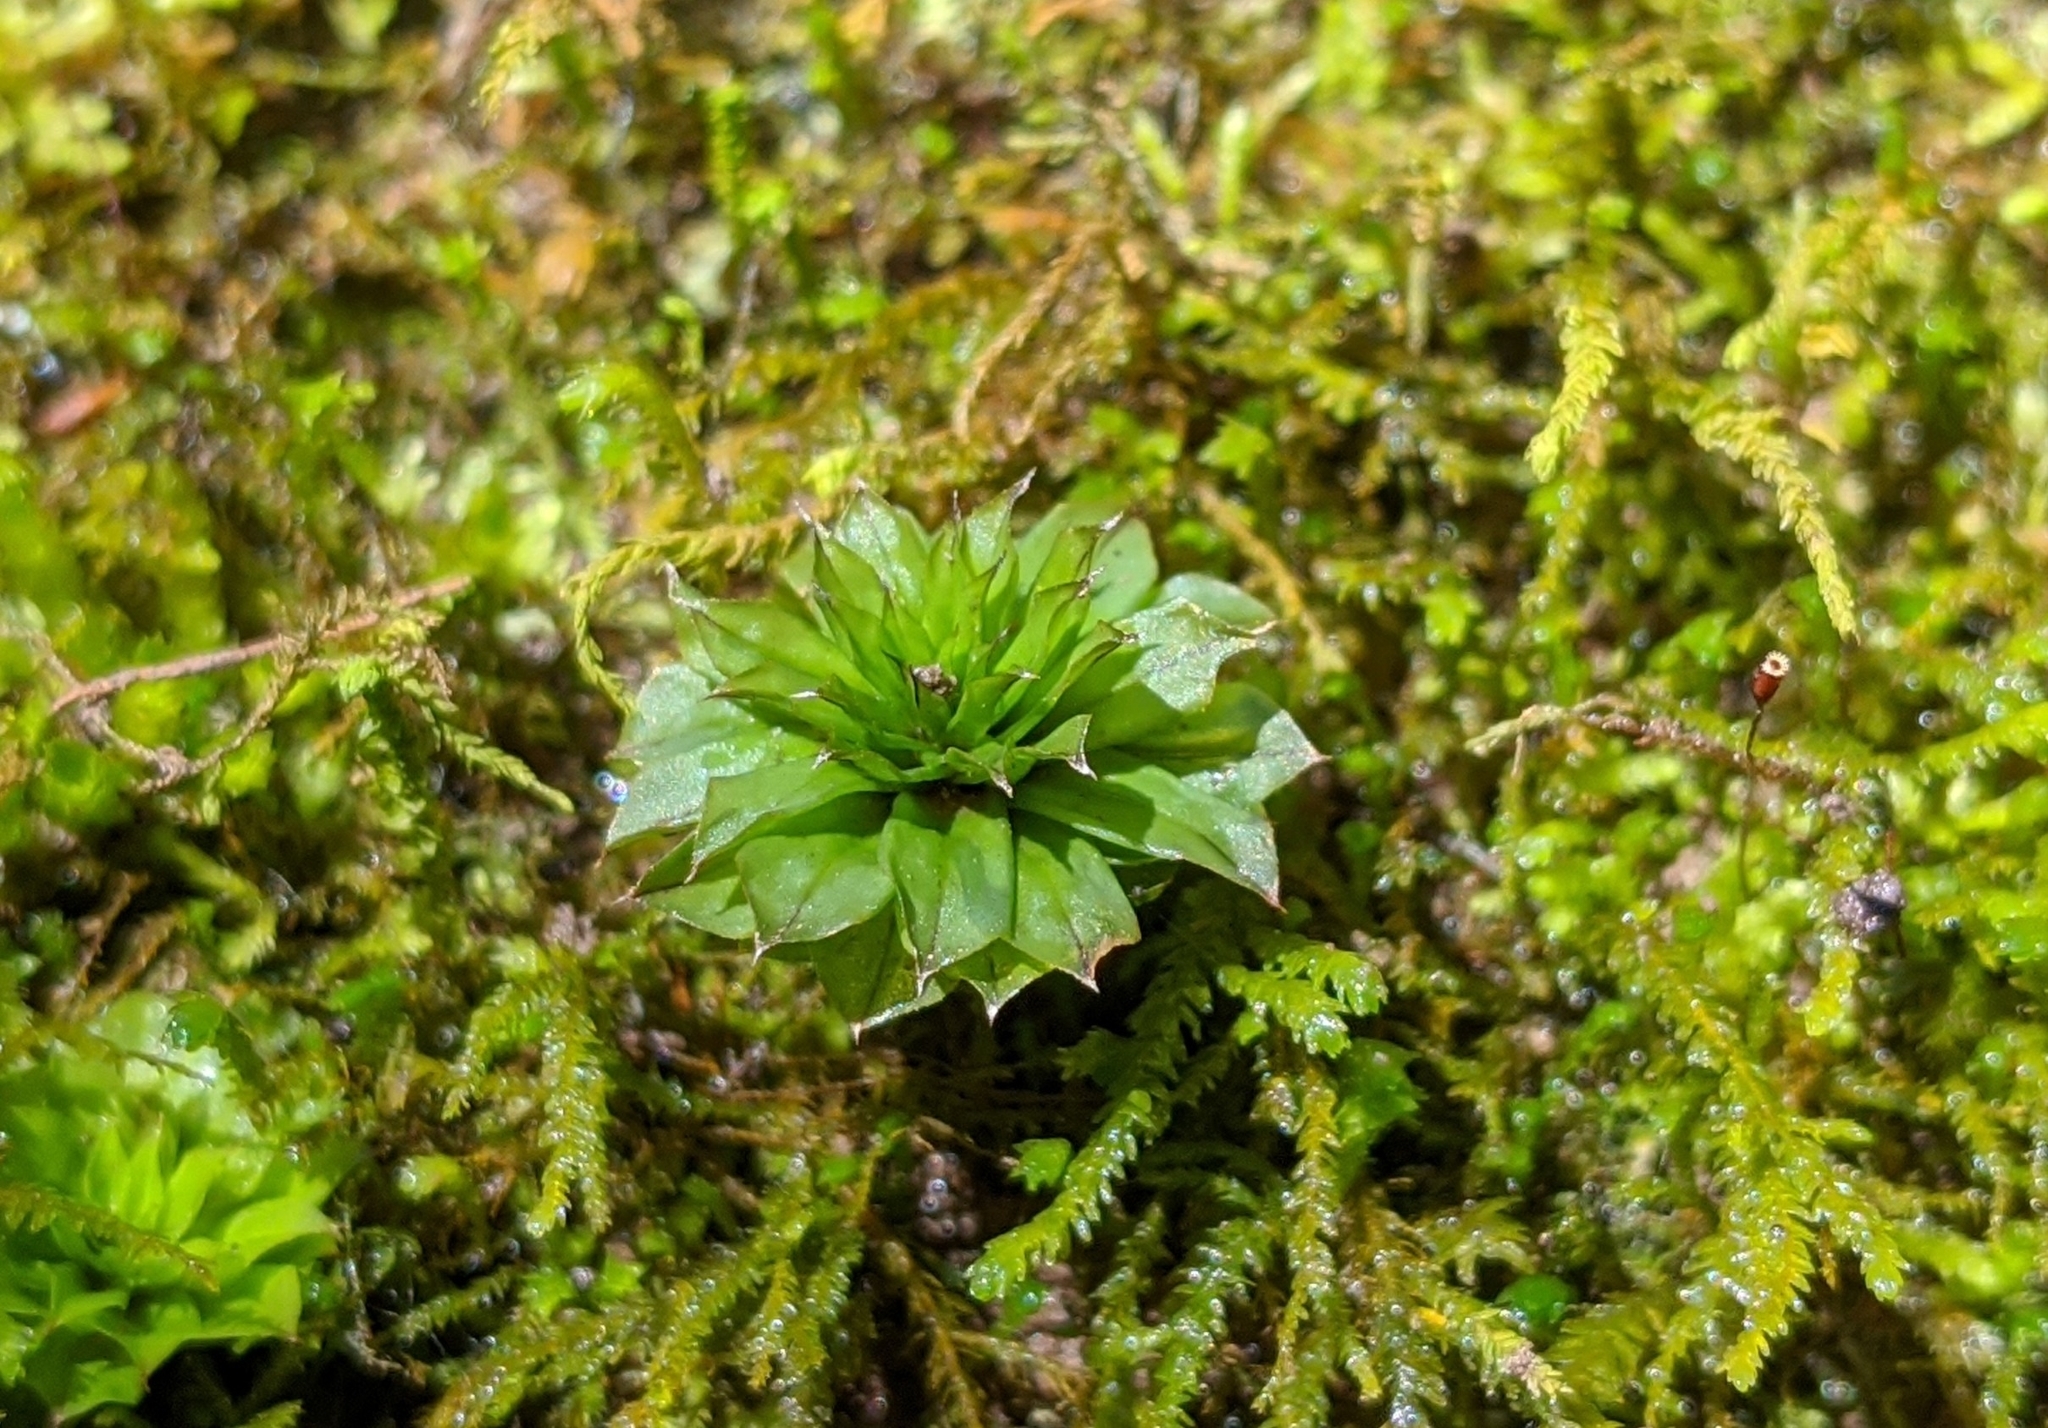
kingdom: Plantae
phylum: Bryophyta
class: Bryopsida
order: Bryales
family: Bryaceae
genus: Rhodobryum
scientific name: Rhodobryum ontariense
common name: Ontario rhodobryum moss
